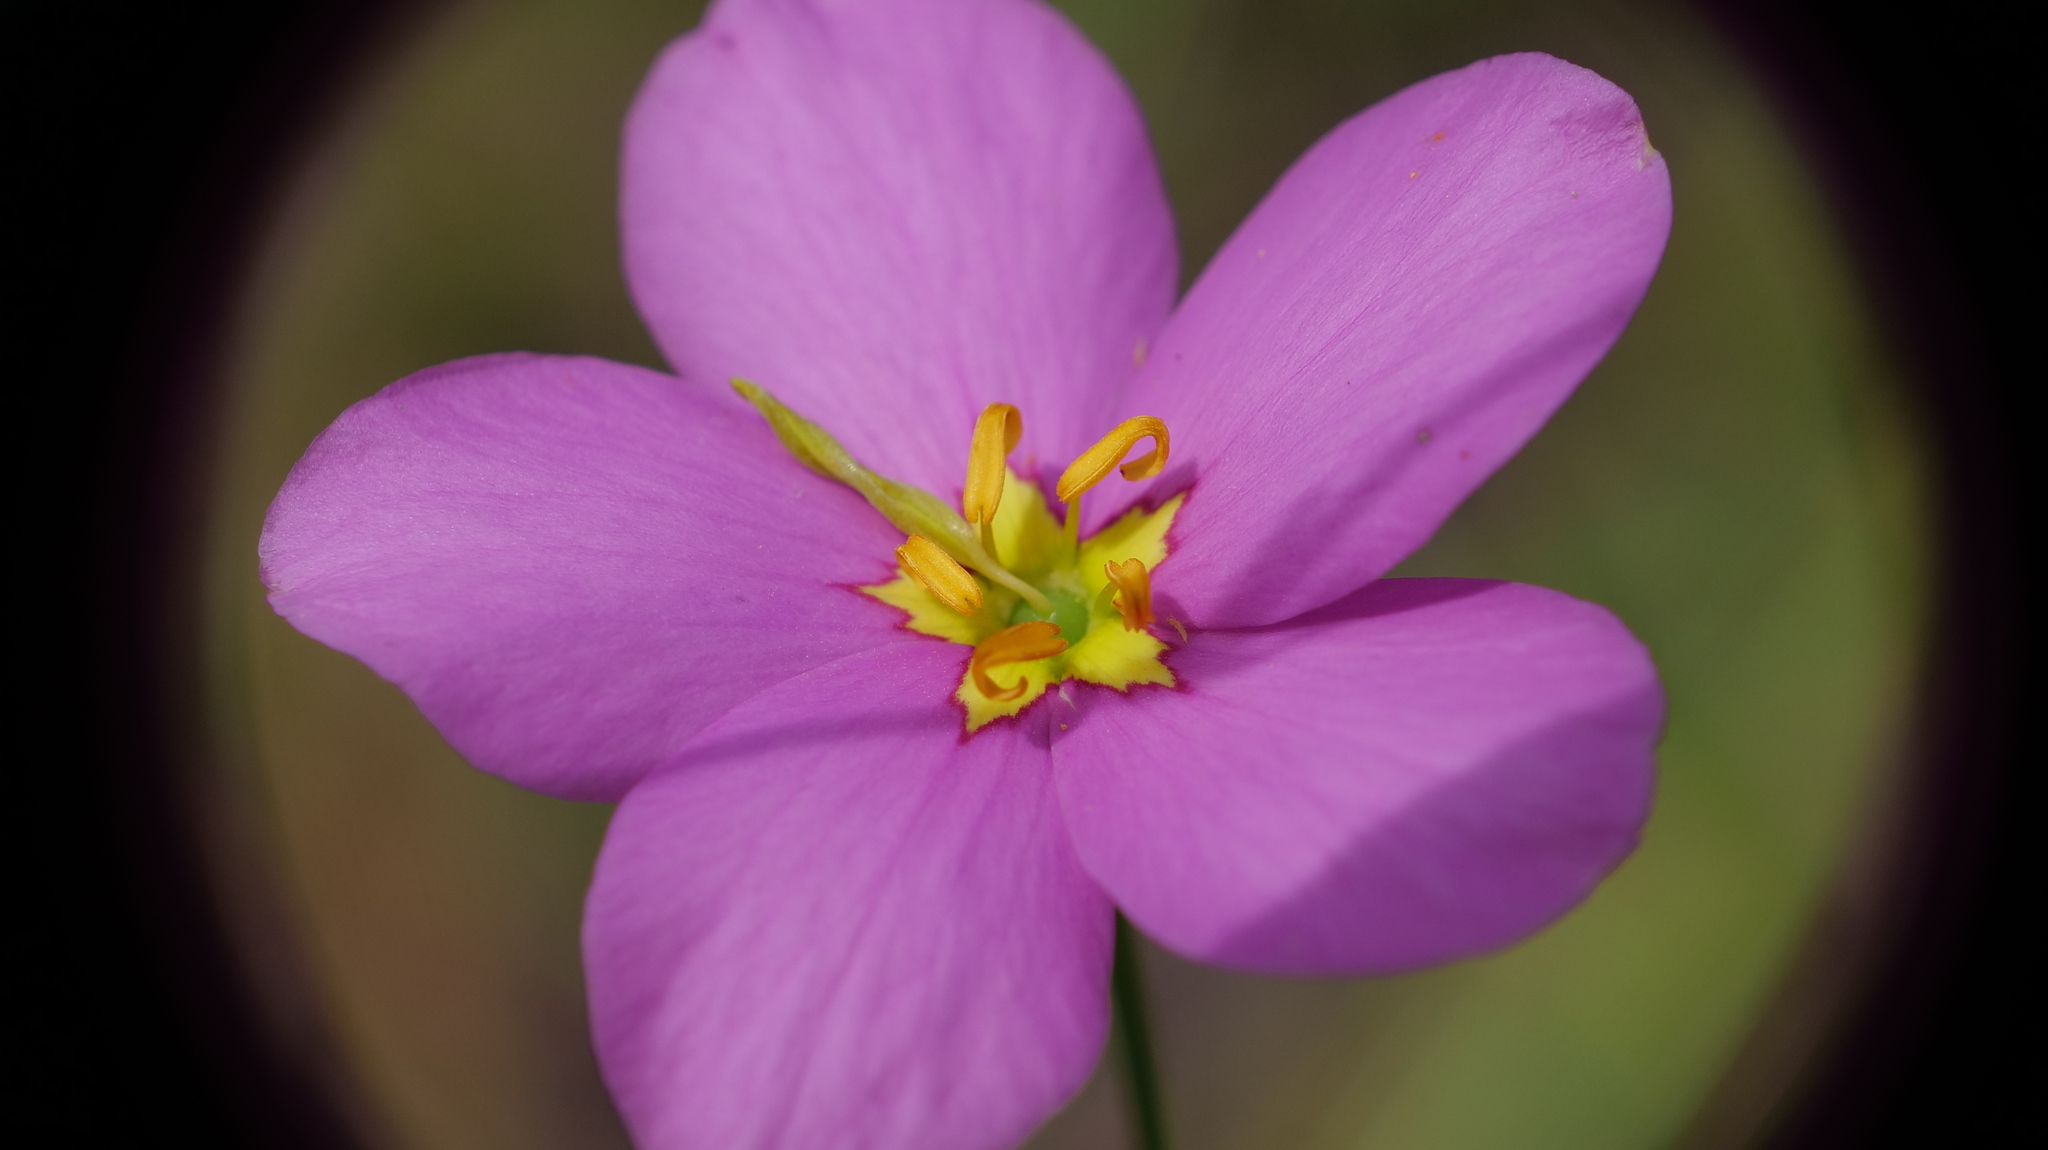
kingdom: Plantae
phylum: Tracheophyta
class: Magnoliopsida
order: Gentianales
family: Gentianaceae
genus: Sabatia
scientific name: Sabatia grandiflora
